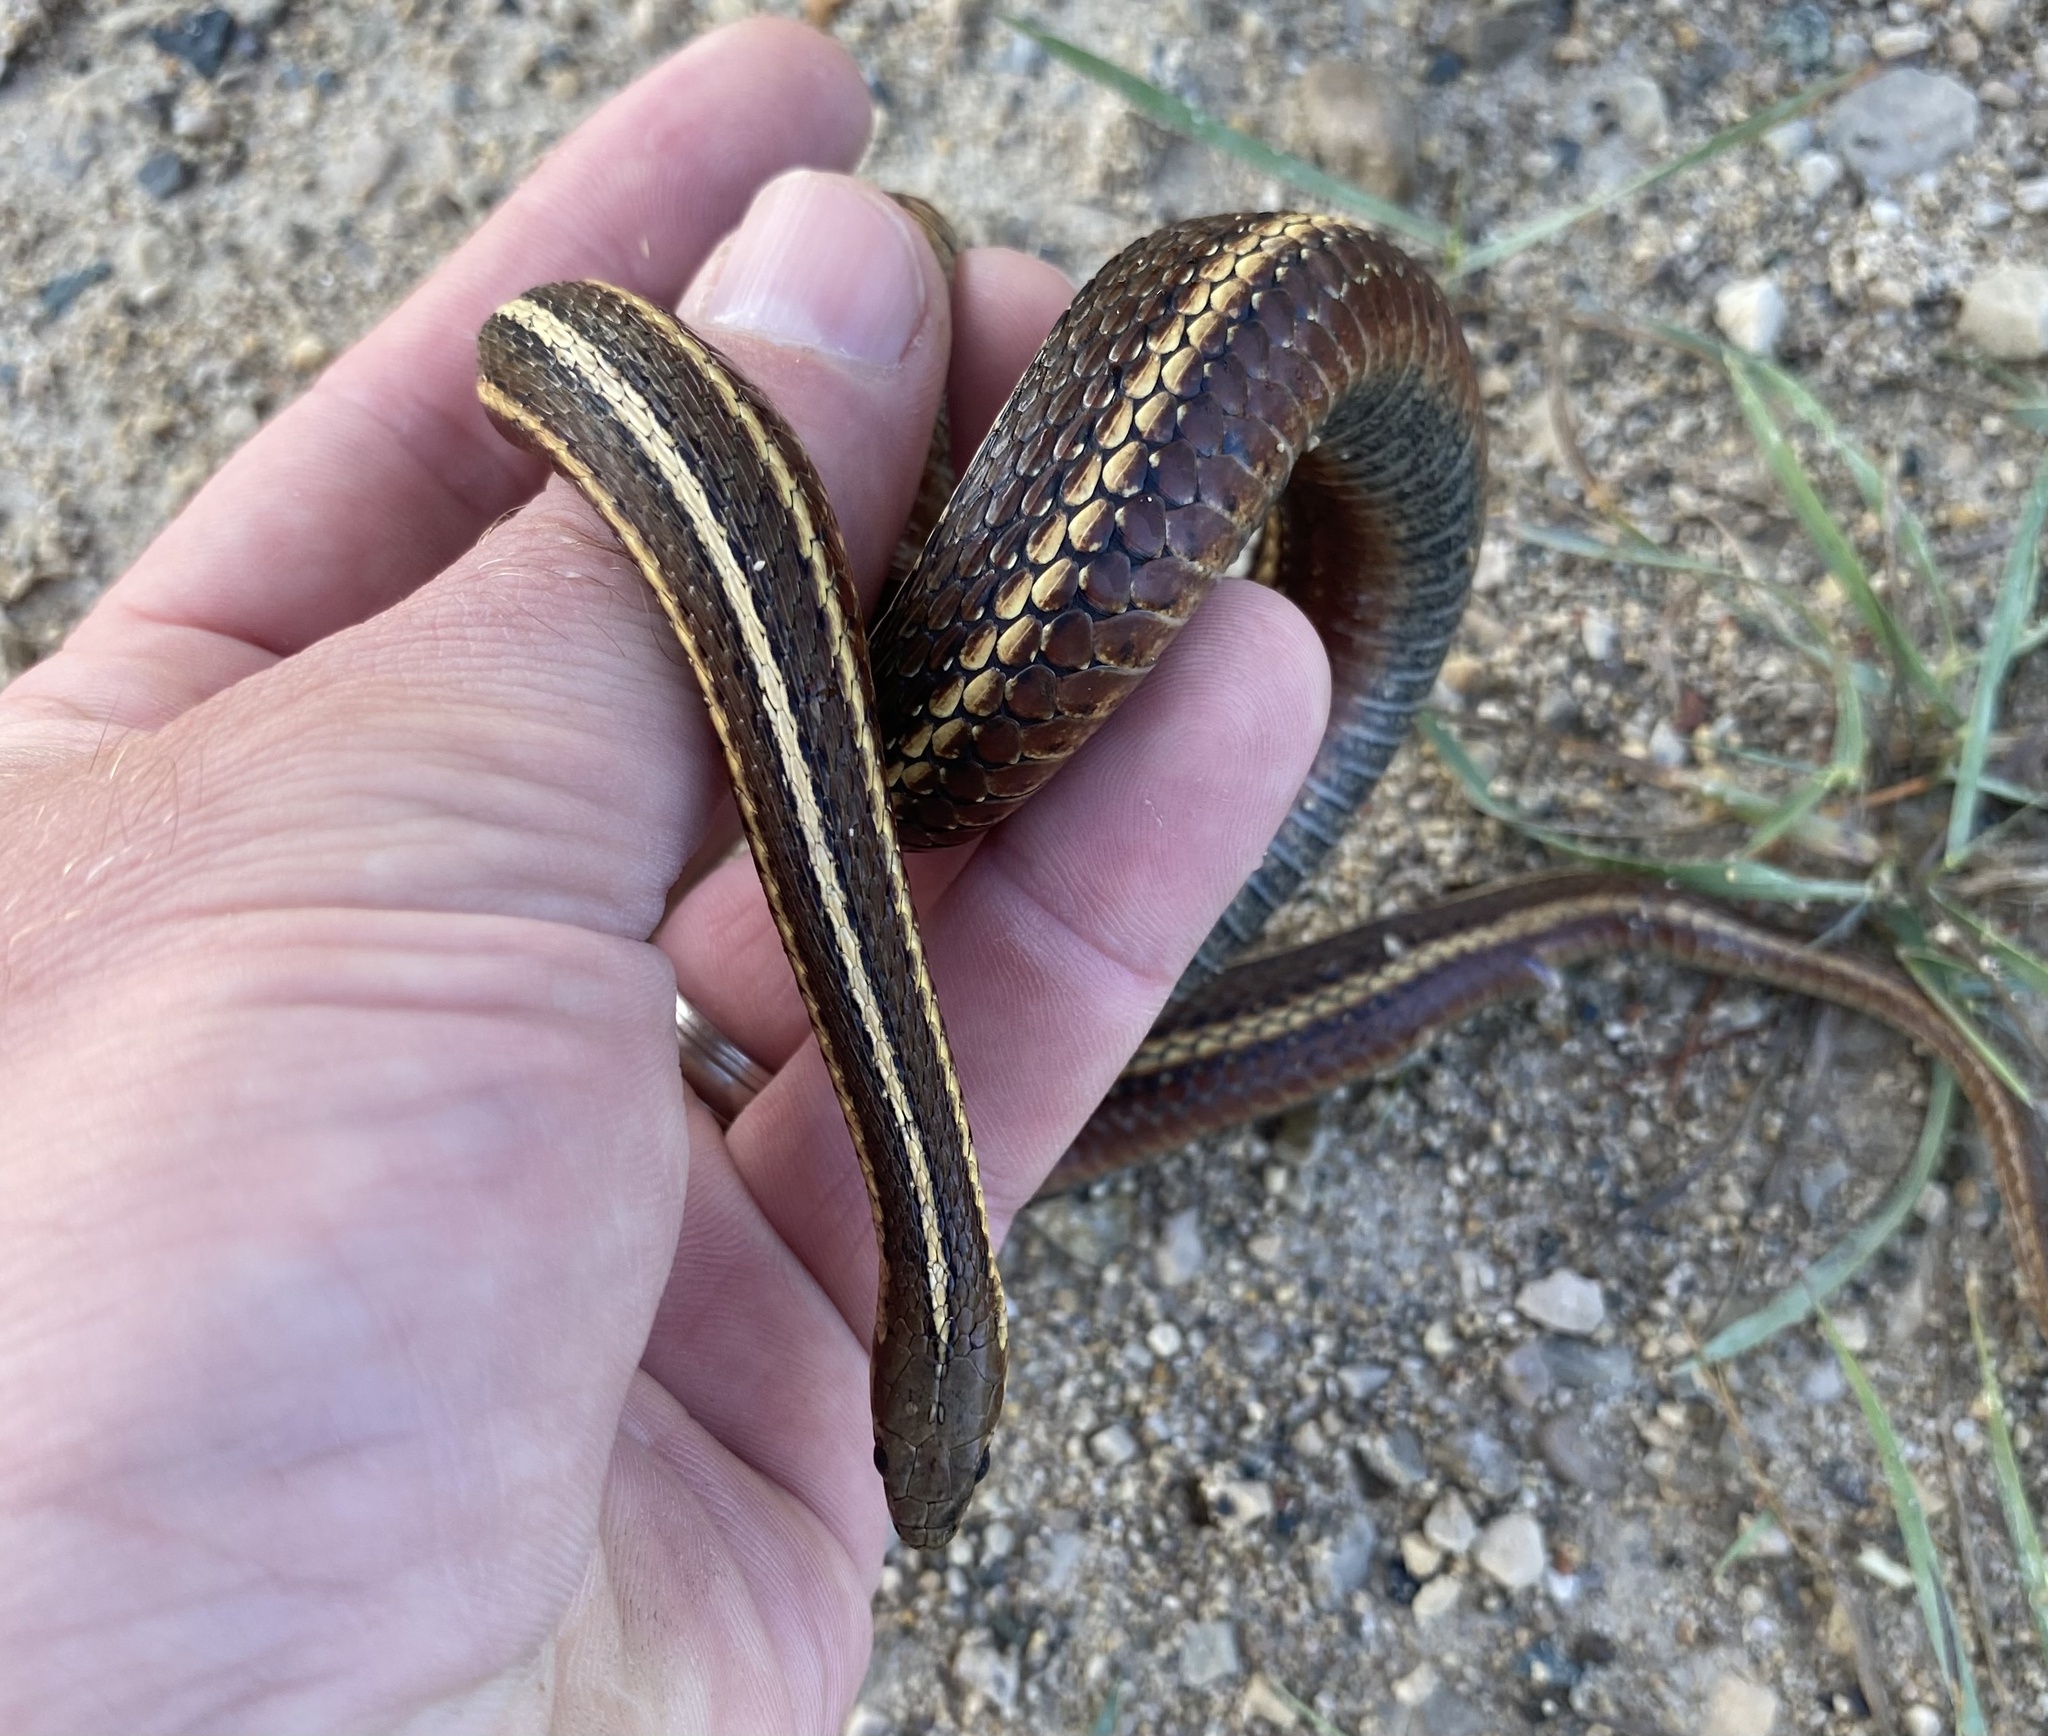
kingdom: Animalia
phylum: Chordata
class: Squamata
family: Colubridae
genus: Thamnophis
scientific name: Thamnophis butleri
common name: Butler's garter snake
